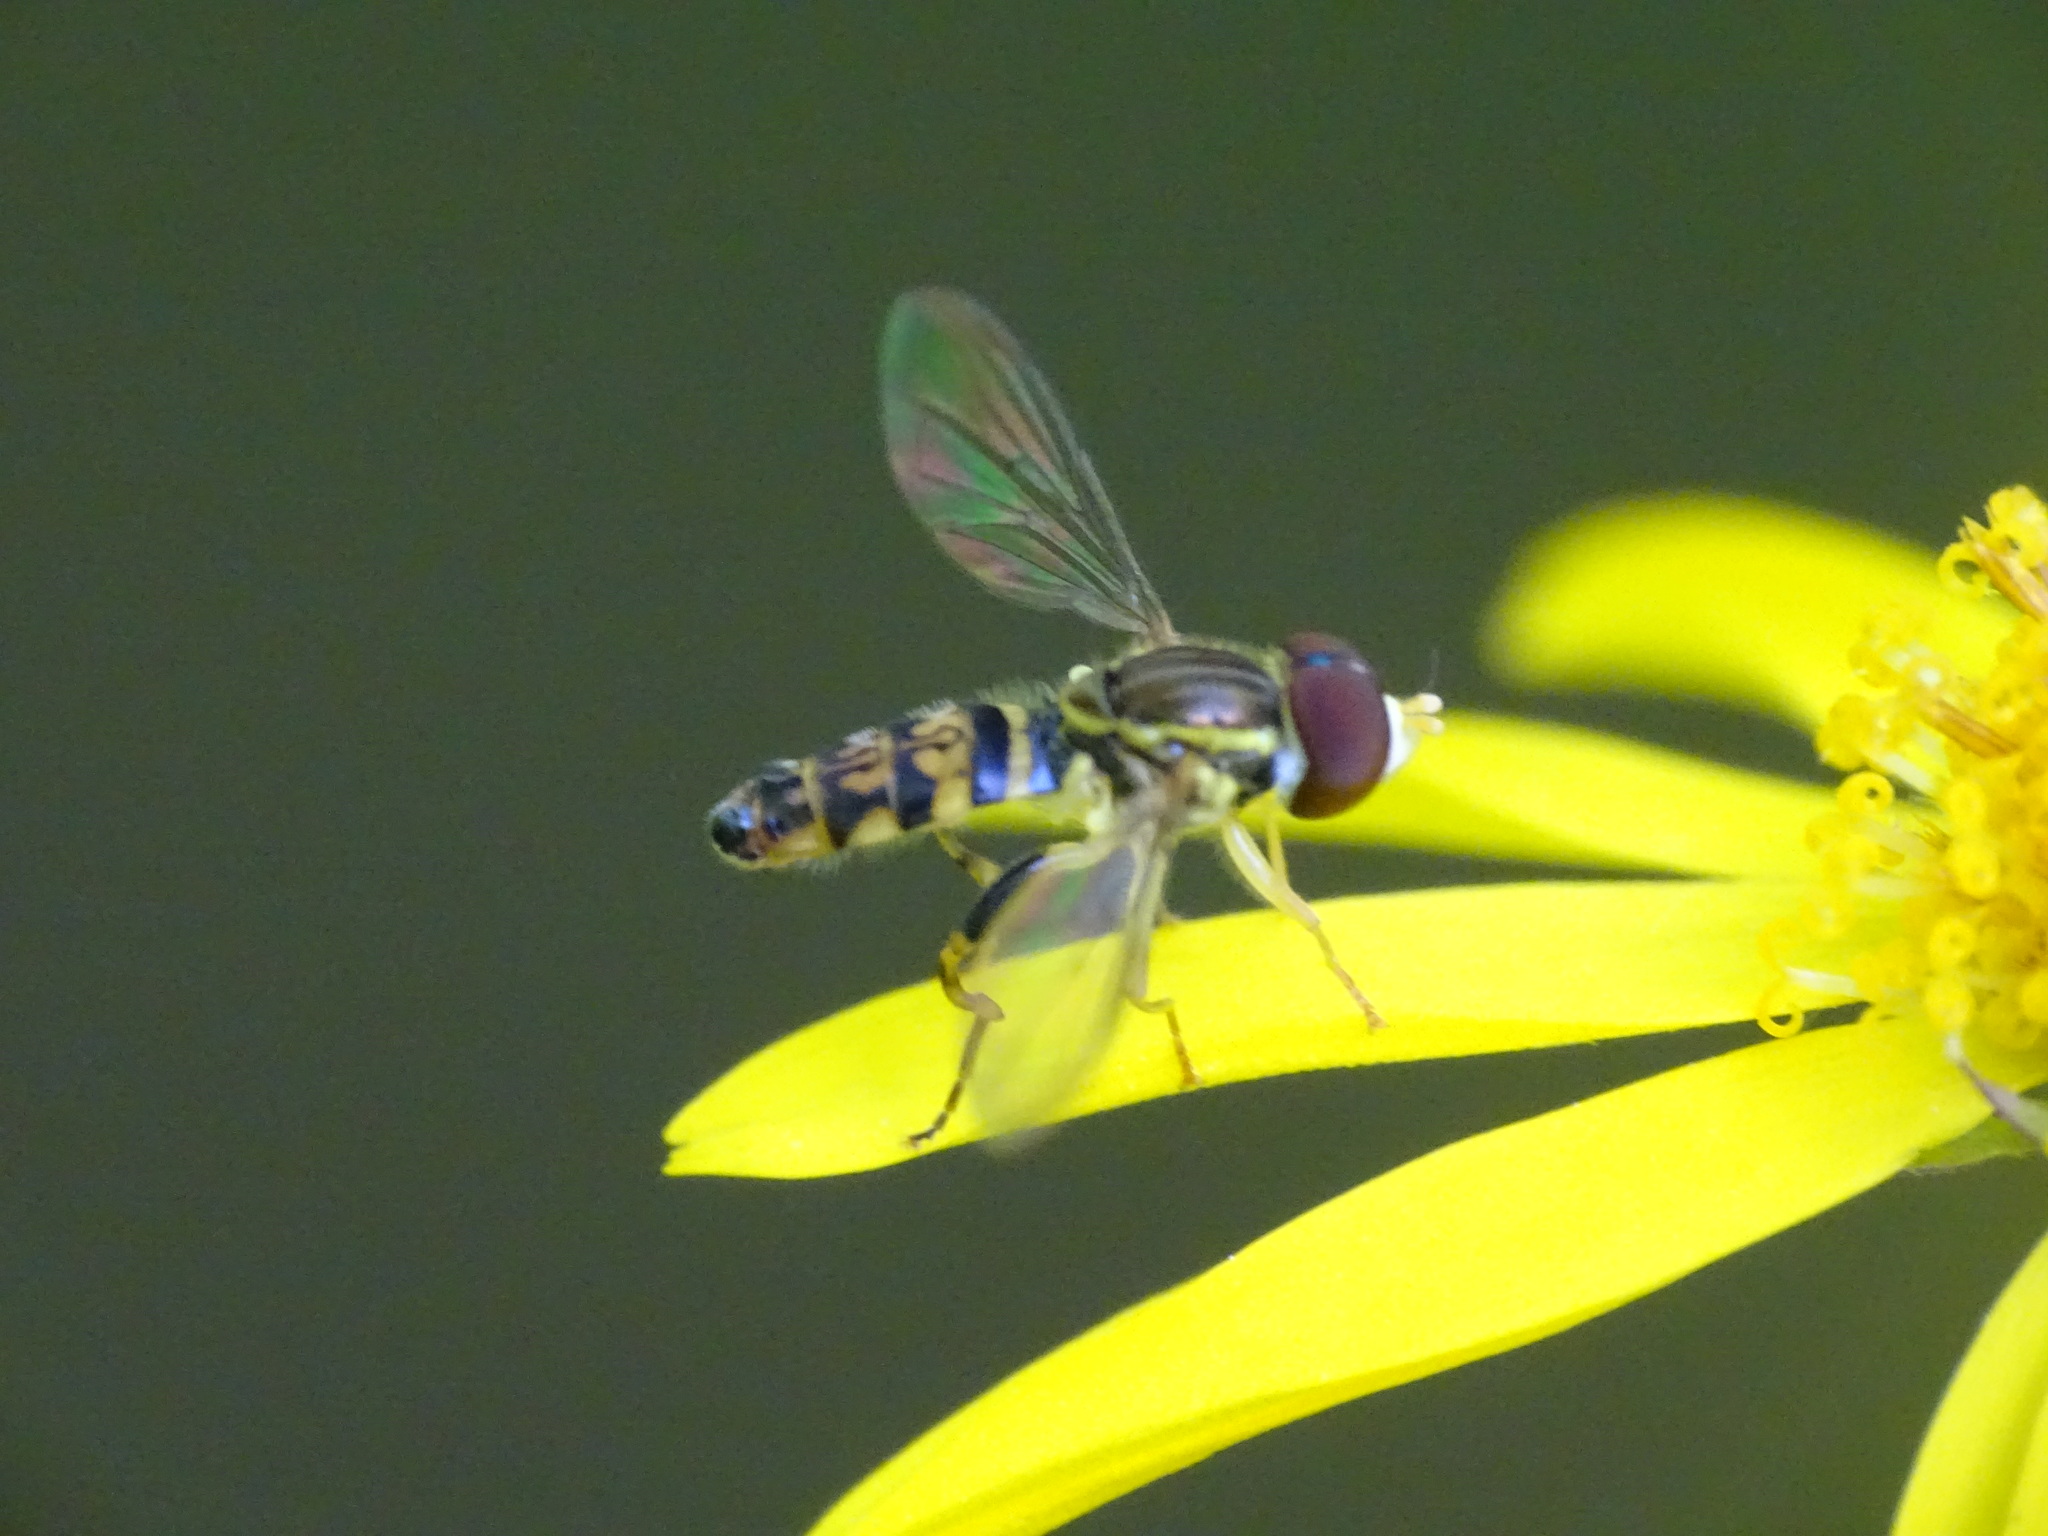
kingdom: Animalia
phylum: Arthropoda
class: Insecta
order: Diptera
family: Syrphidae
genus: Toxomerus
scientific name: Toxomerus geminatus
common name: Eastern calligrapher
